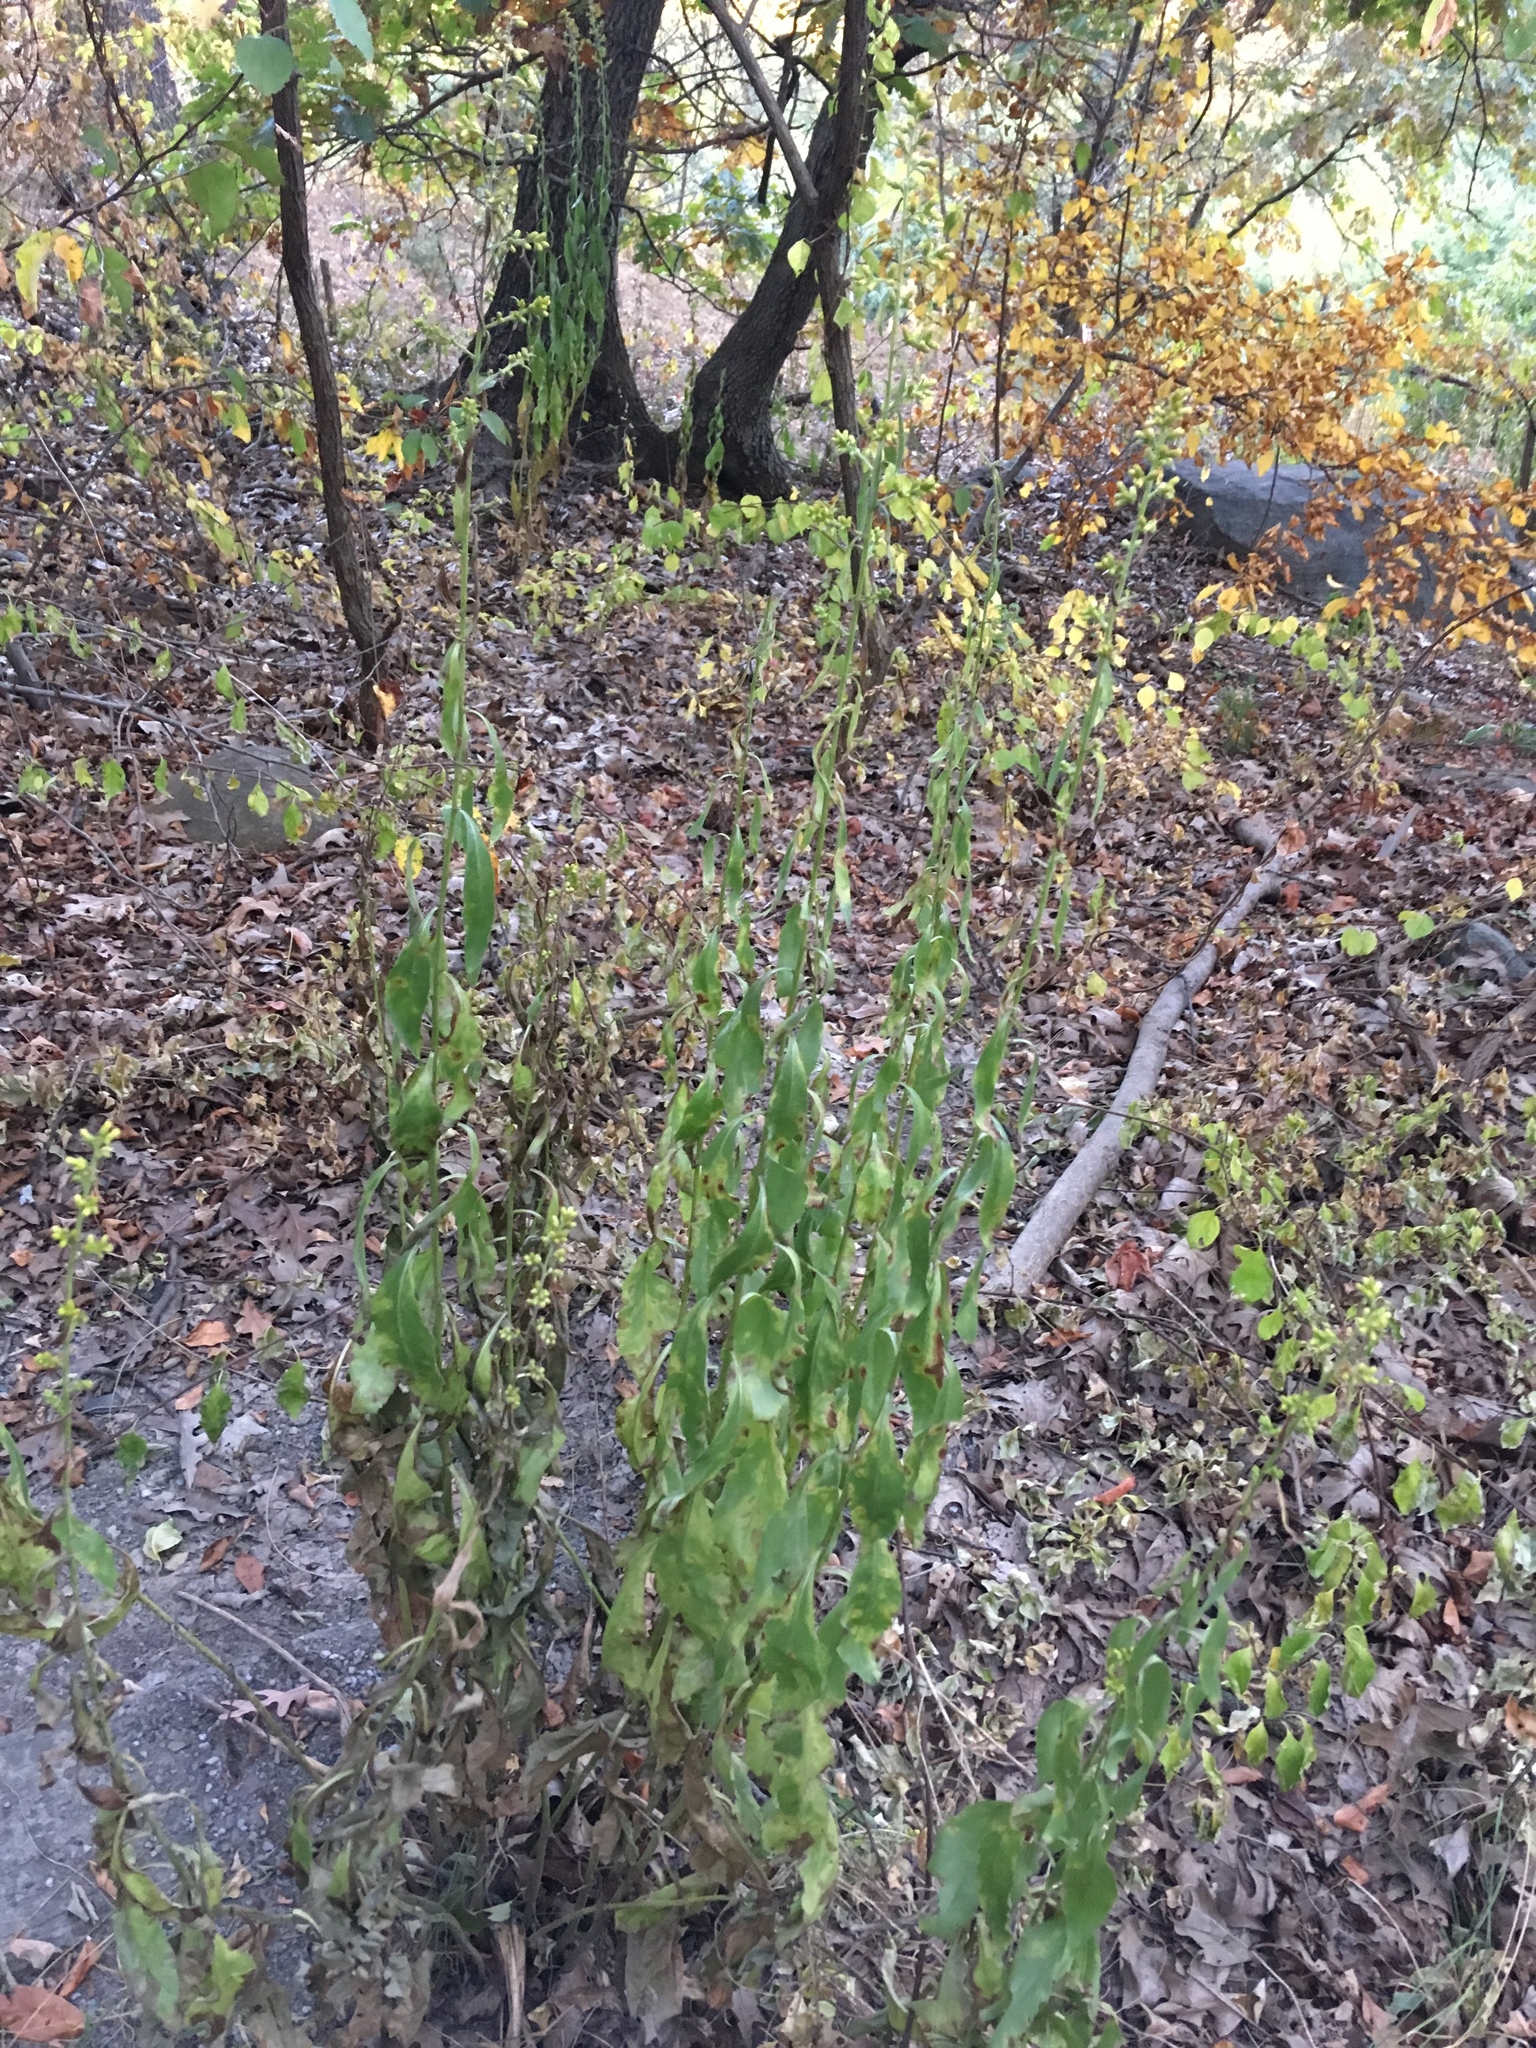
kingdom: Plantae
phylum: Tracheophyta
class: Magnoliopsida
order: Asterales
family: Asteraceae
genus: Solidago
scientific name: Solidago speciosa
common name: Showy goldenrod
